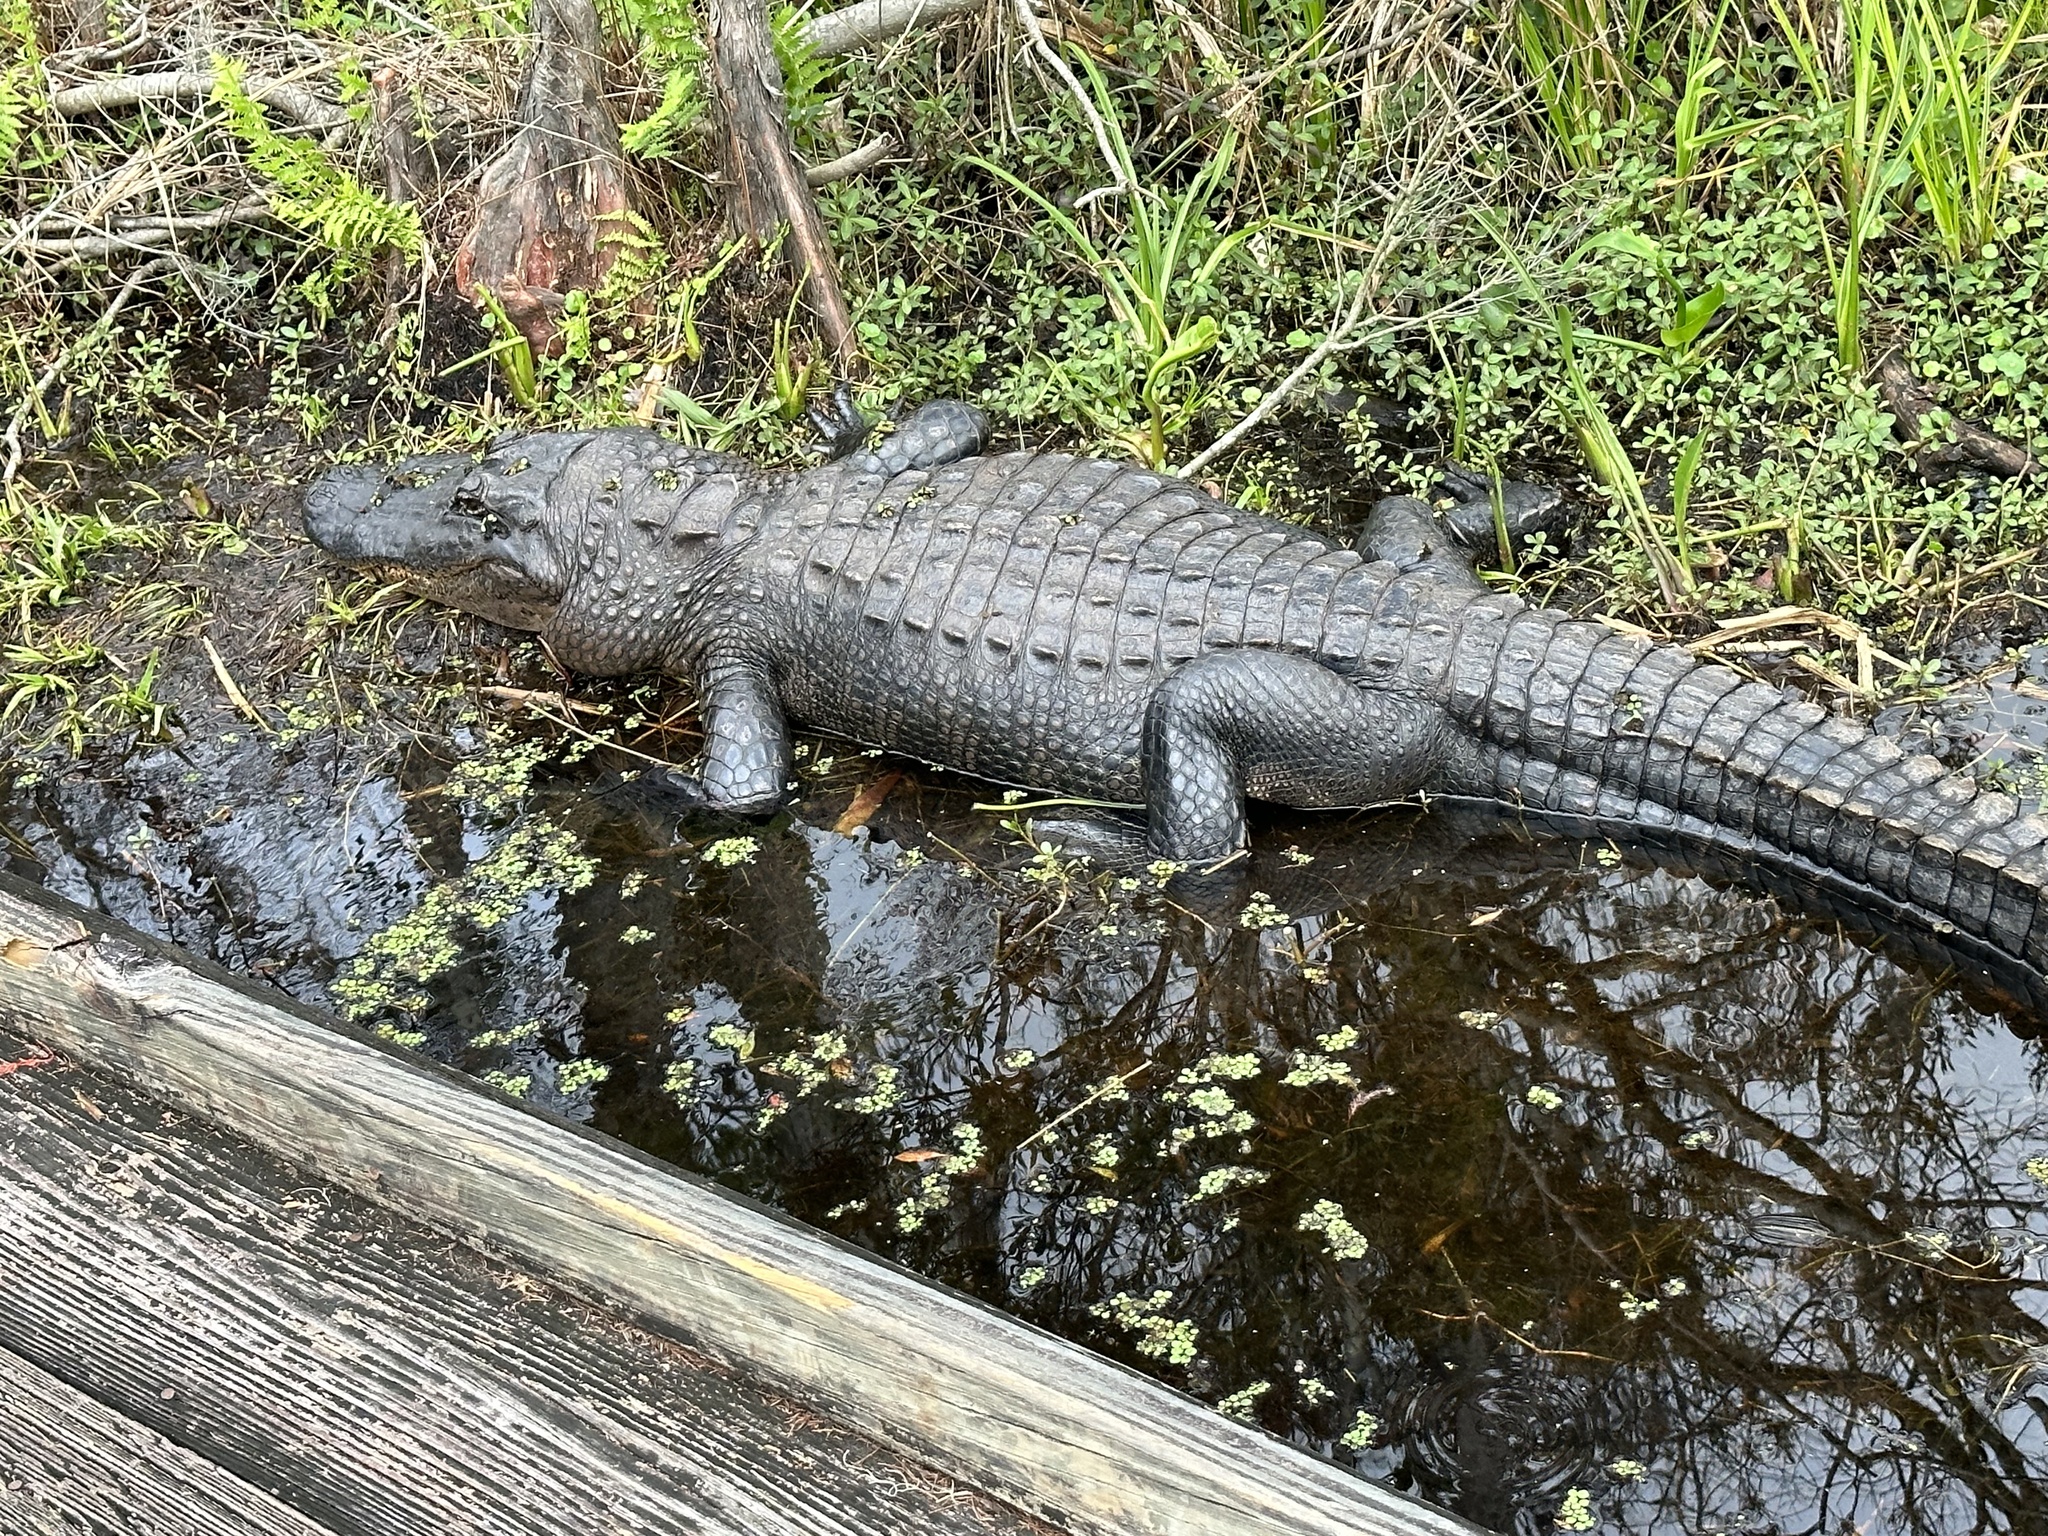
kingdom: Animalia
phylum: Chordata
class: Crocodylia
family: Alligatoridae
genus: Alligator
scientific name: Alligator mississippiensis
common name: American alligator
